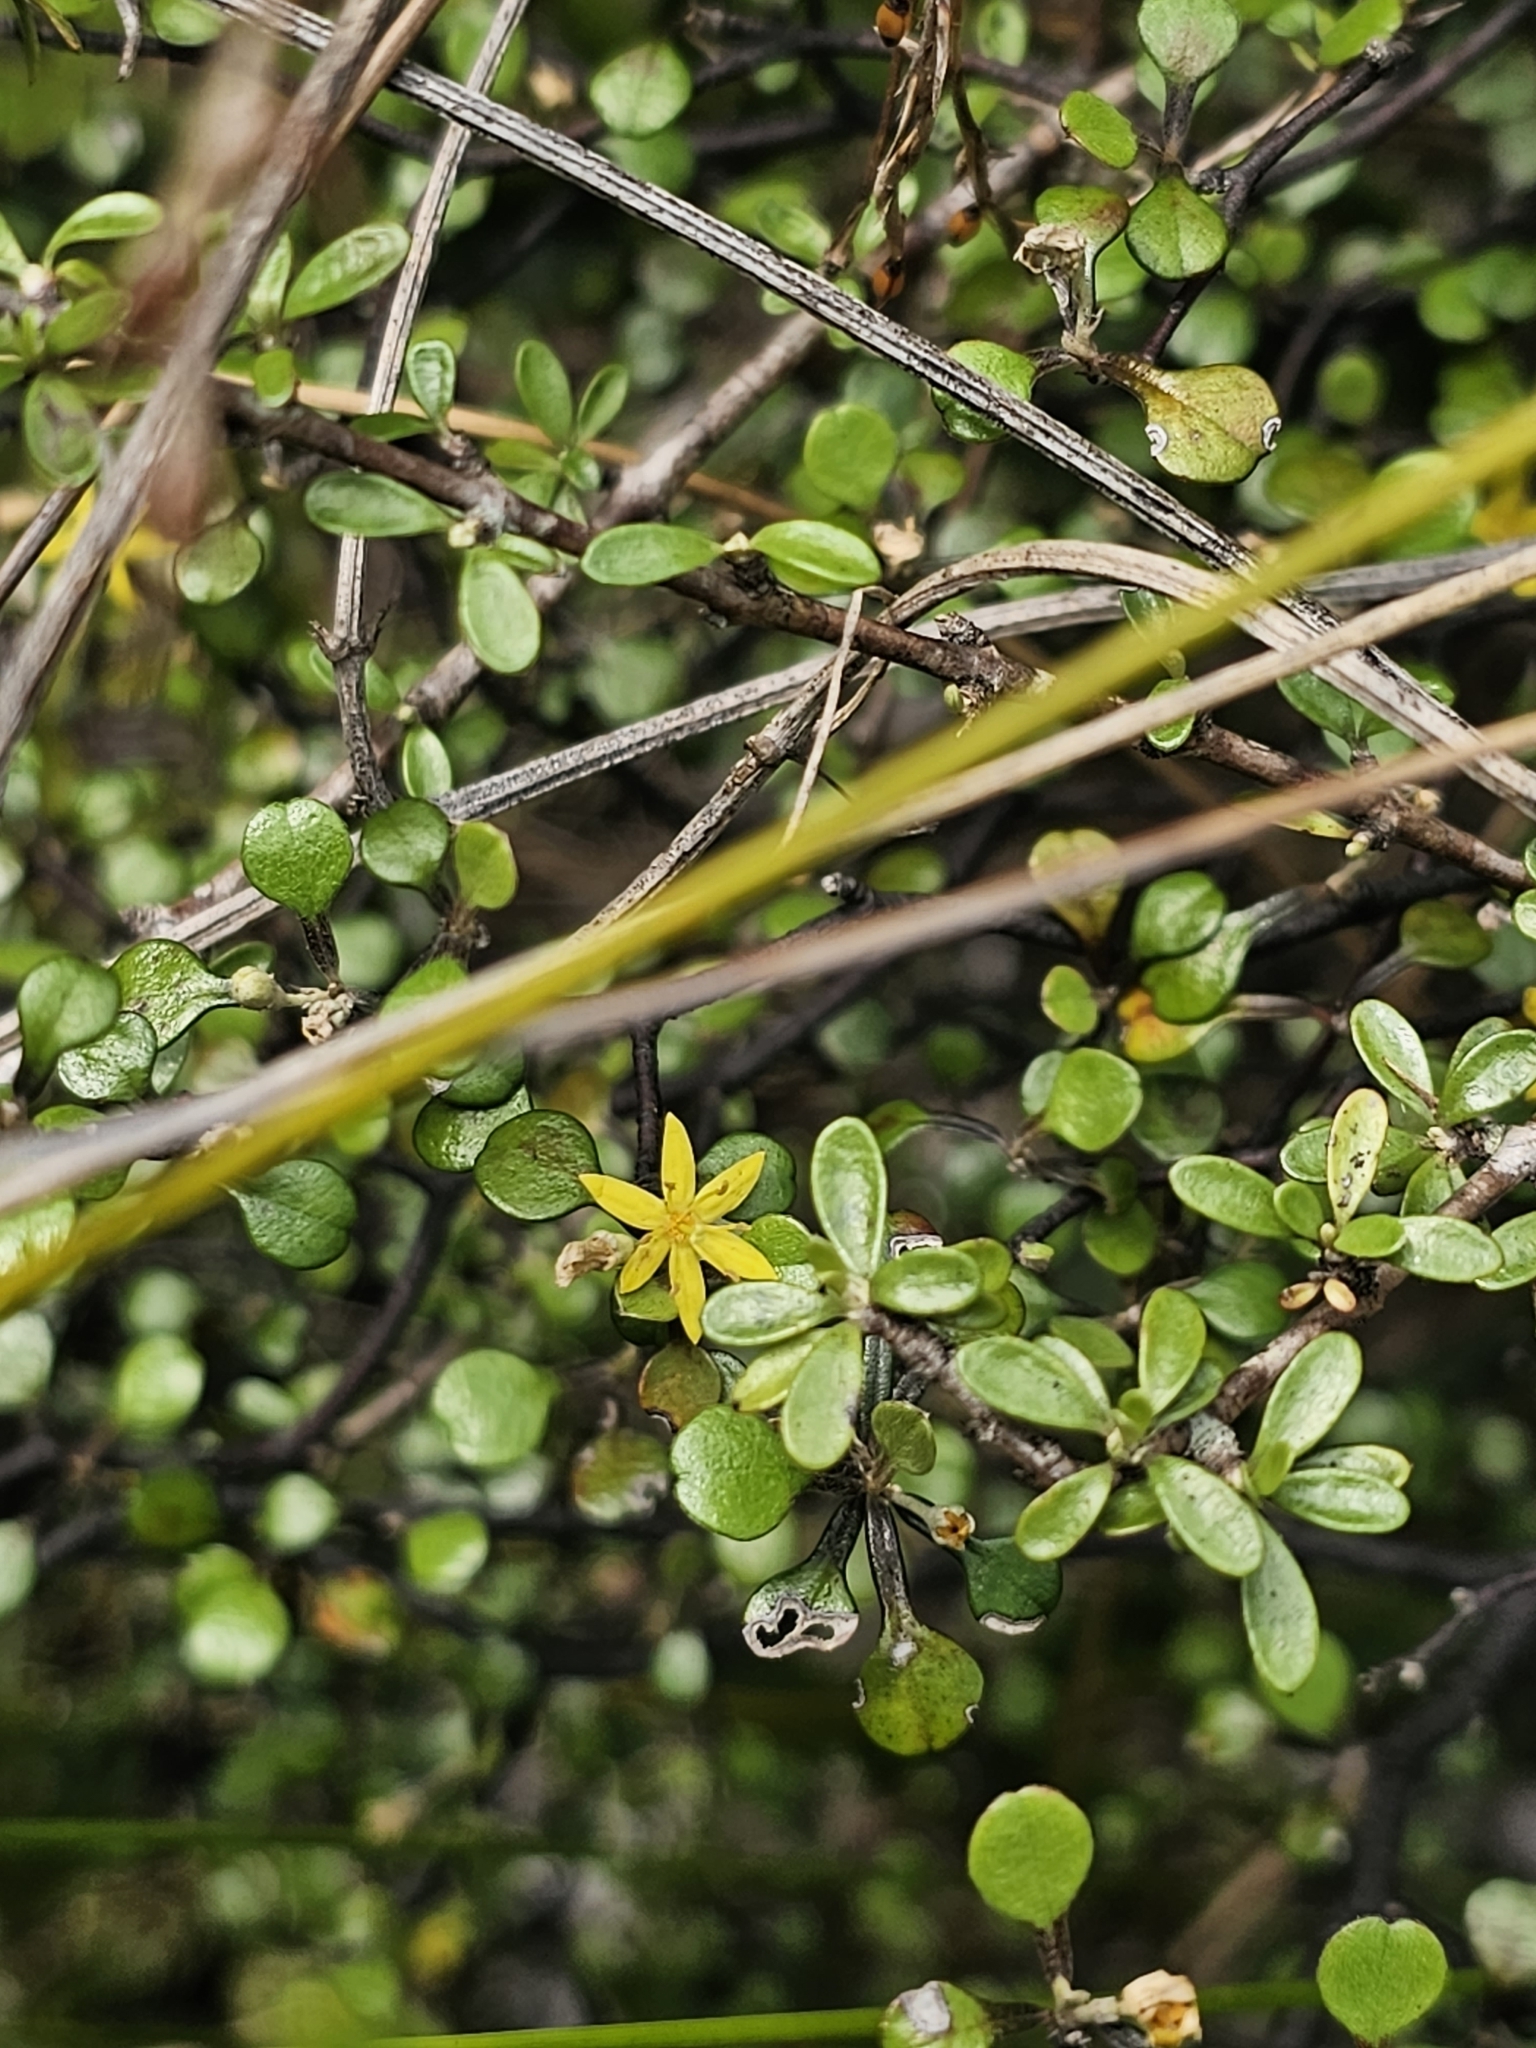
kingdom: Plantae
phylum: Tracheophyta
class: Magnoliopsida
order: Asterales
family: Argophyllaceae
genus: Corokia
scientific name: Corokia cotoneaster
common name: Wire nettingbush
